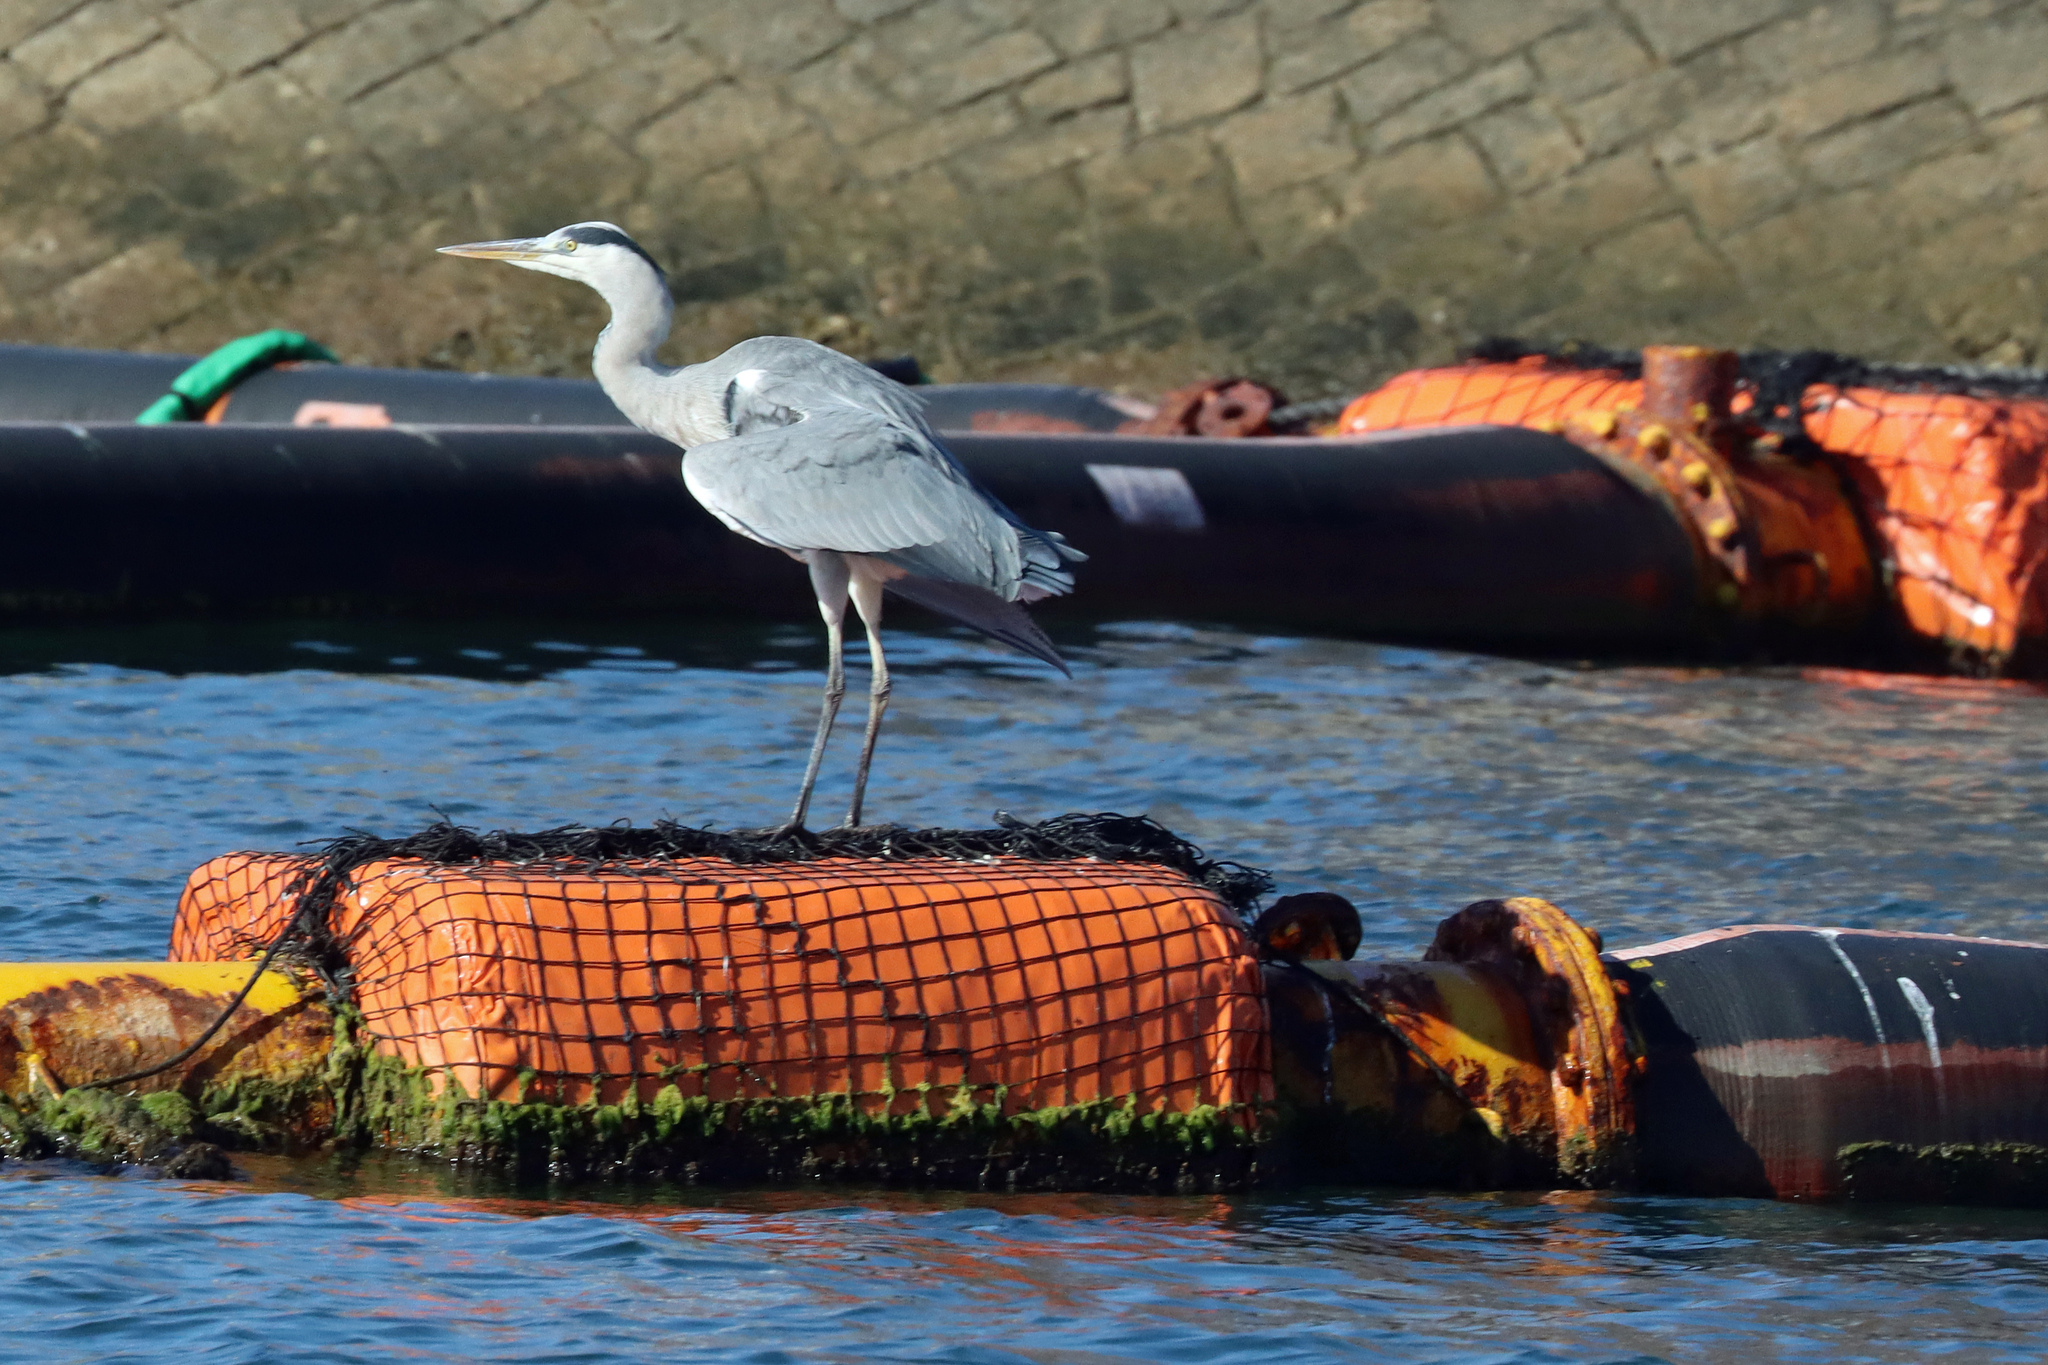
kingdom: Animalia
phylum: Chordata
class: Aves
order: Pelecaniformes
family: Ardeidae
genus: Ardea
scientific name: Ardea cinerea
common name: Grey heron
